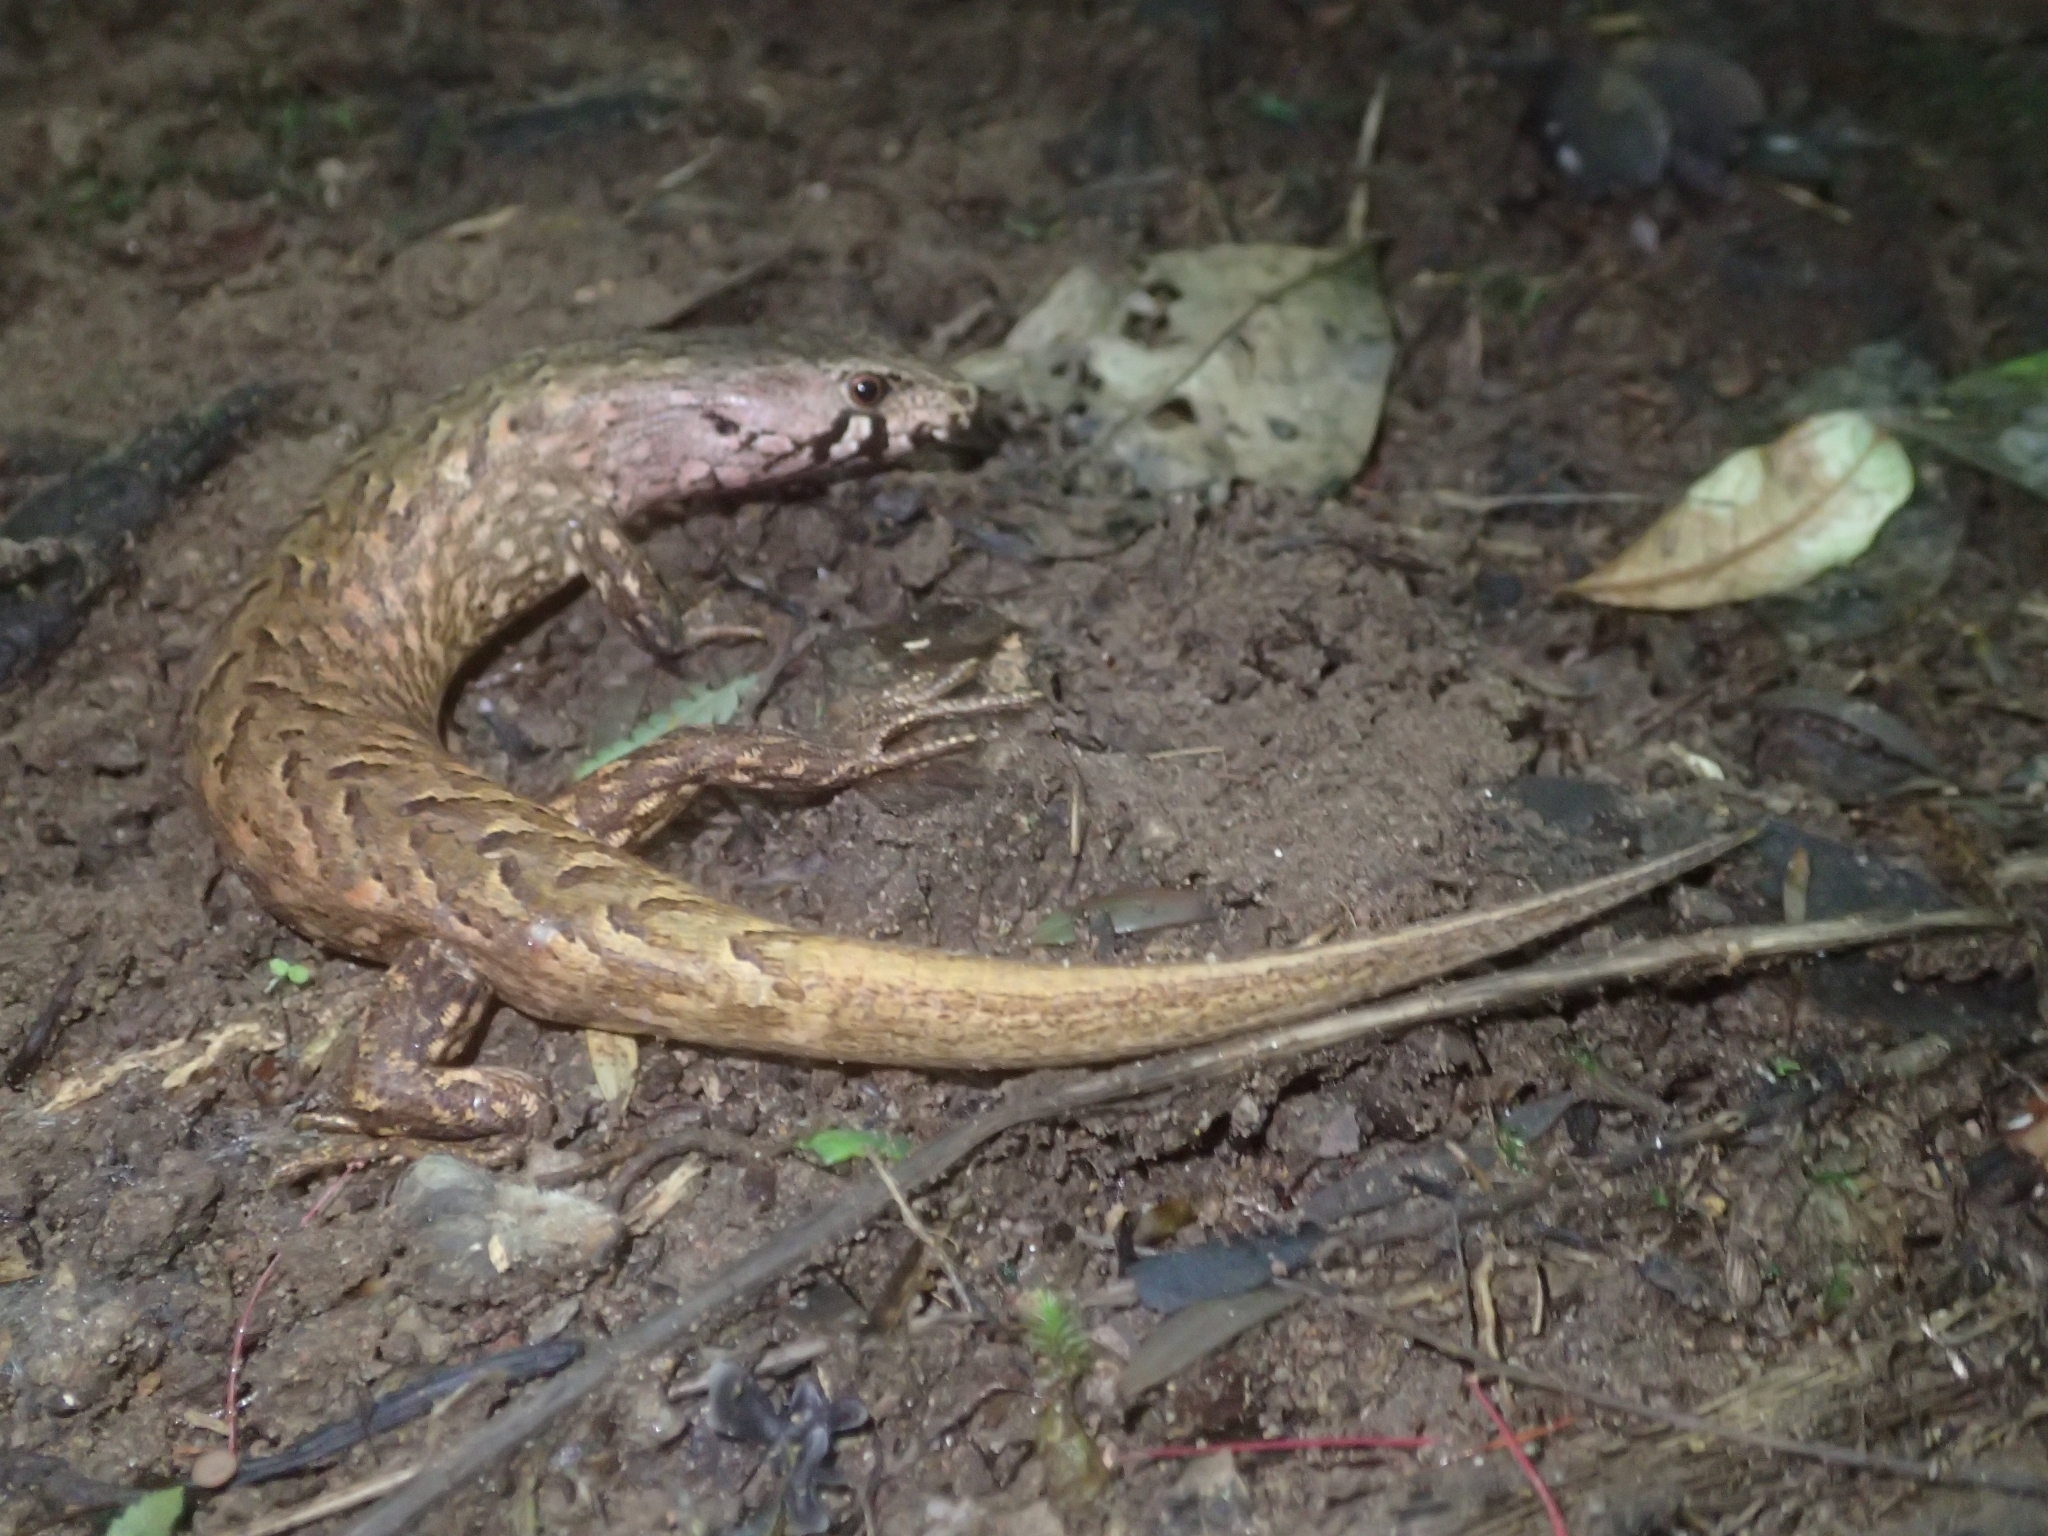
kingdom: Animalia
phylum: Chordata
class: Squamata
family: Scincidae
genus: Oligosoma
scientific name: Oligosoma homalonotum
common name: Chevron skink
